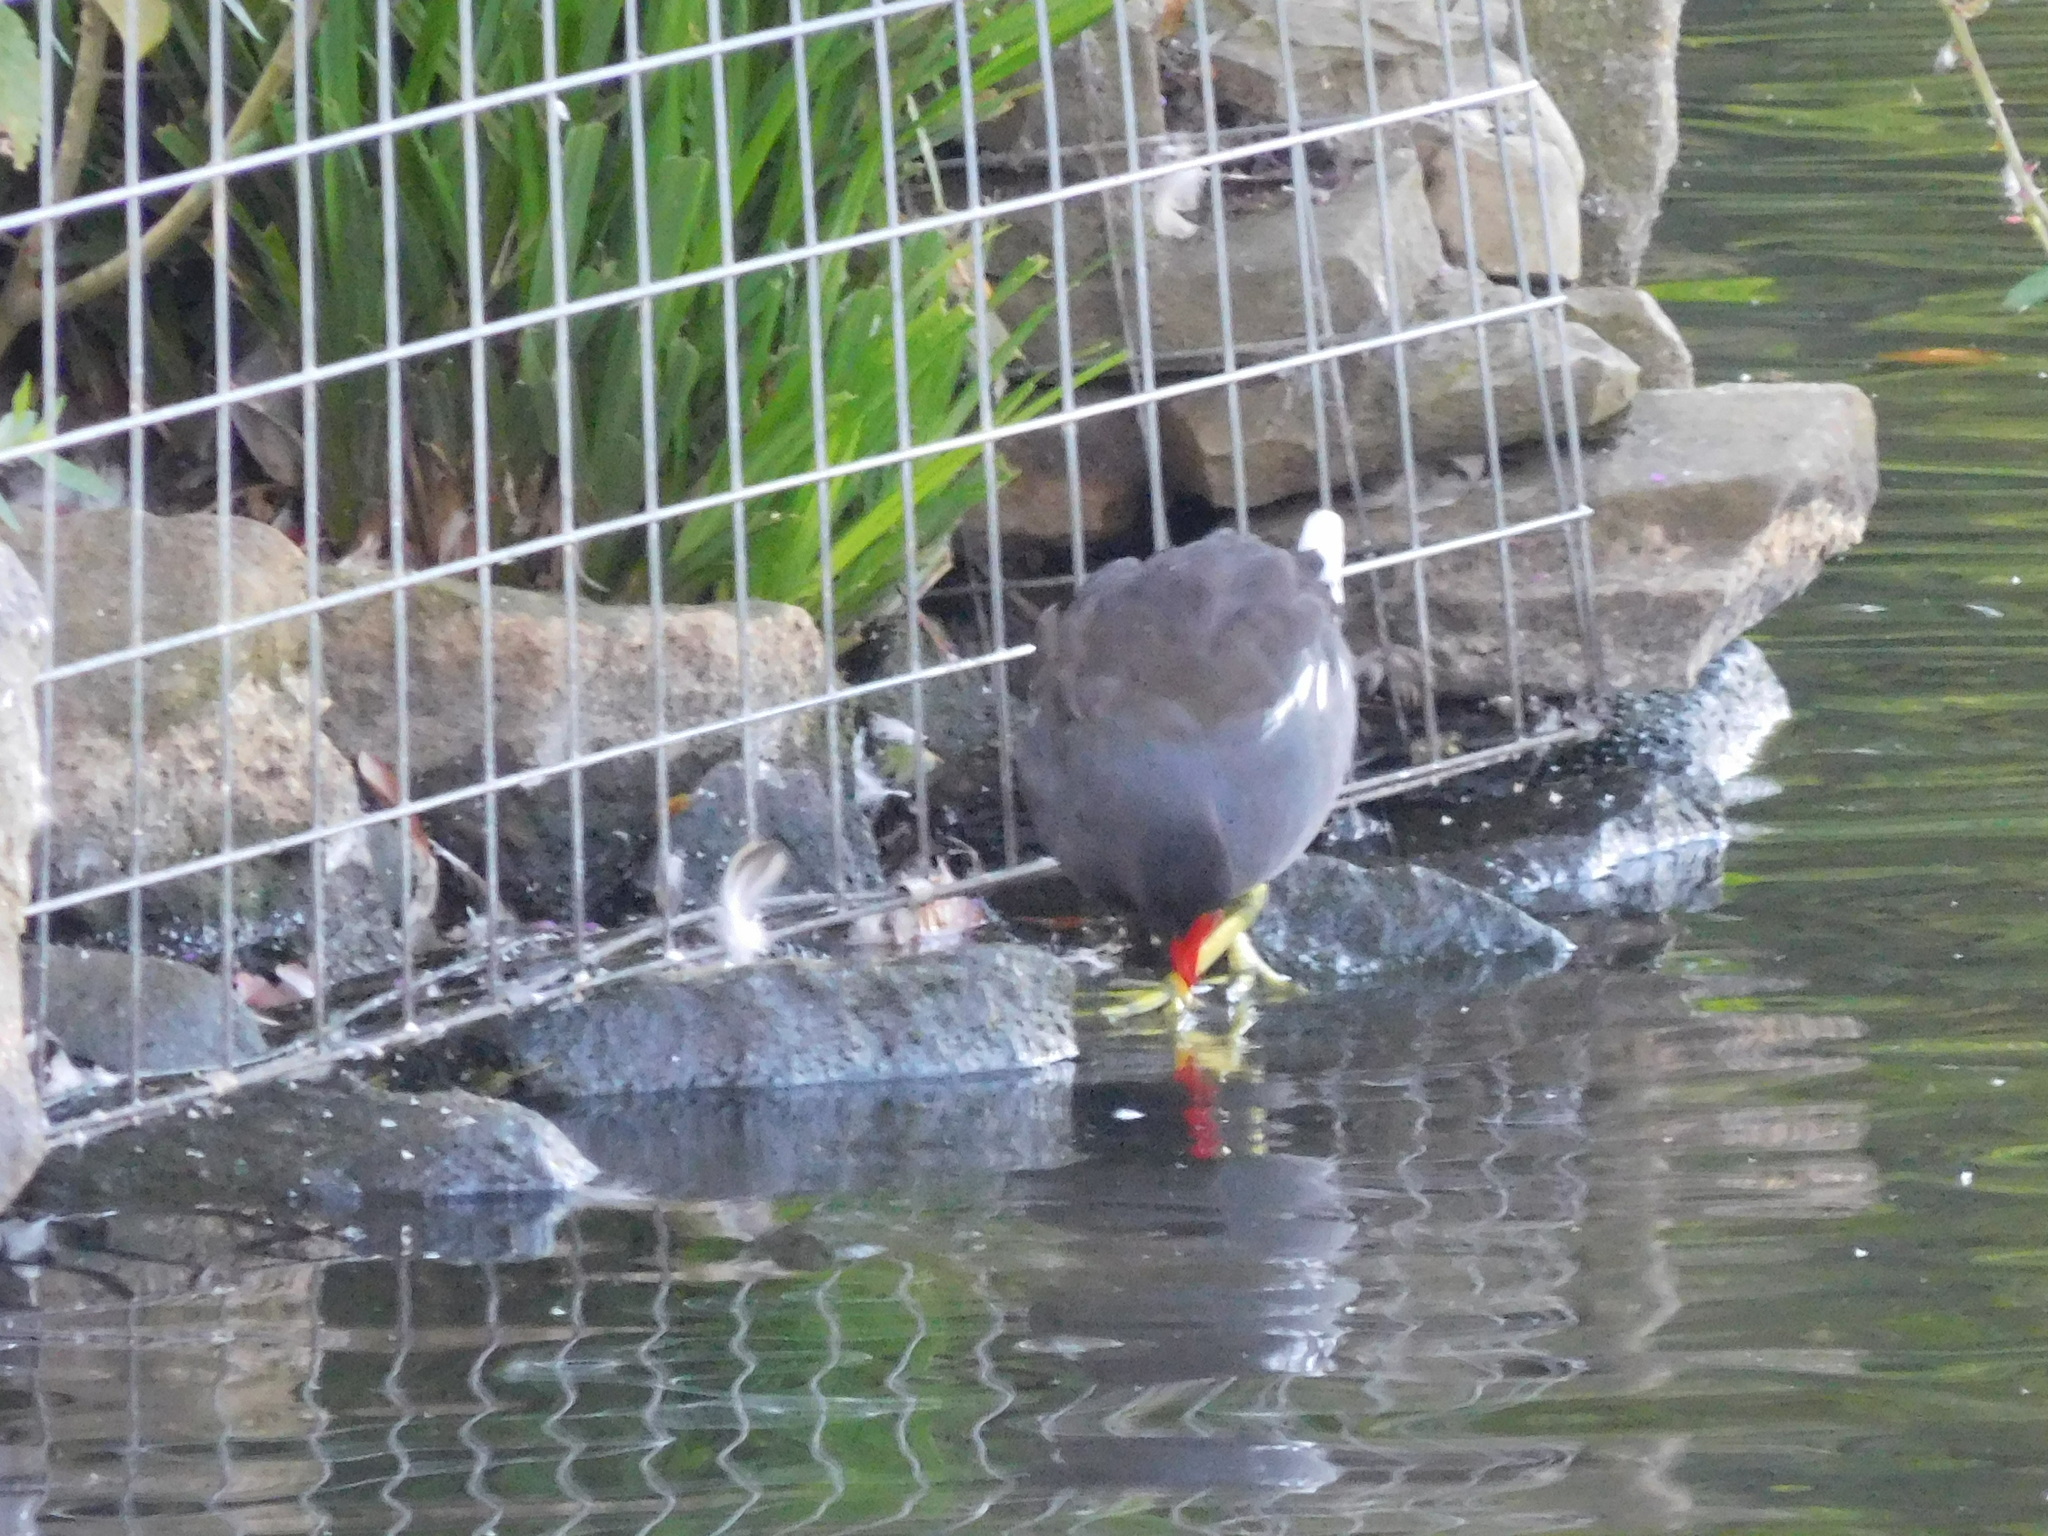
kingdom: Animalia
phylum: Chordata
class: Aves
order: Gruiformes
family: Rallidae
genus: Gallinula
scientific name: Gallinula chloropus
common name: Common moorhen
